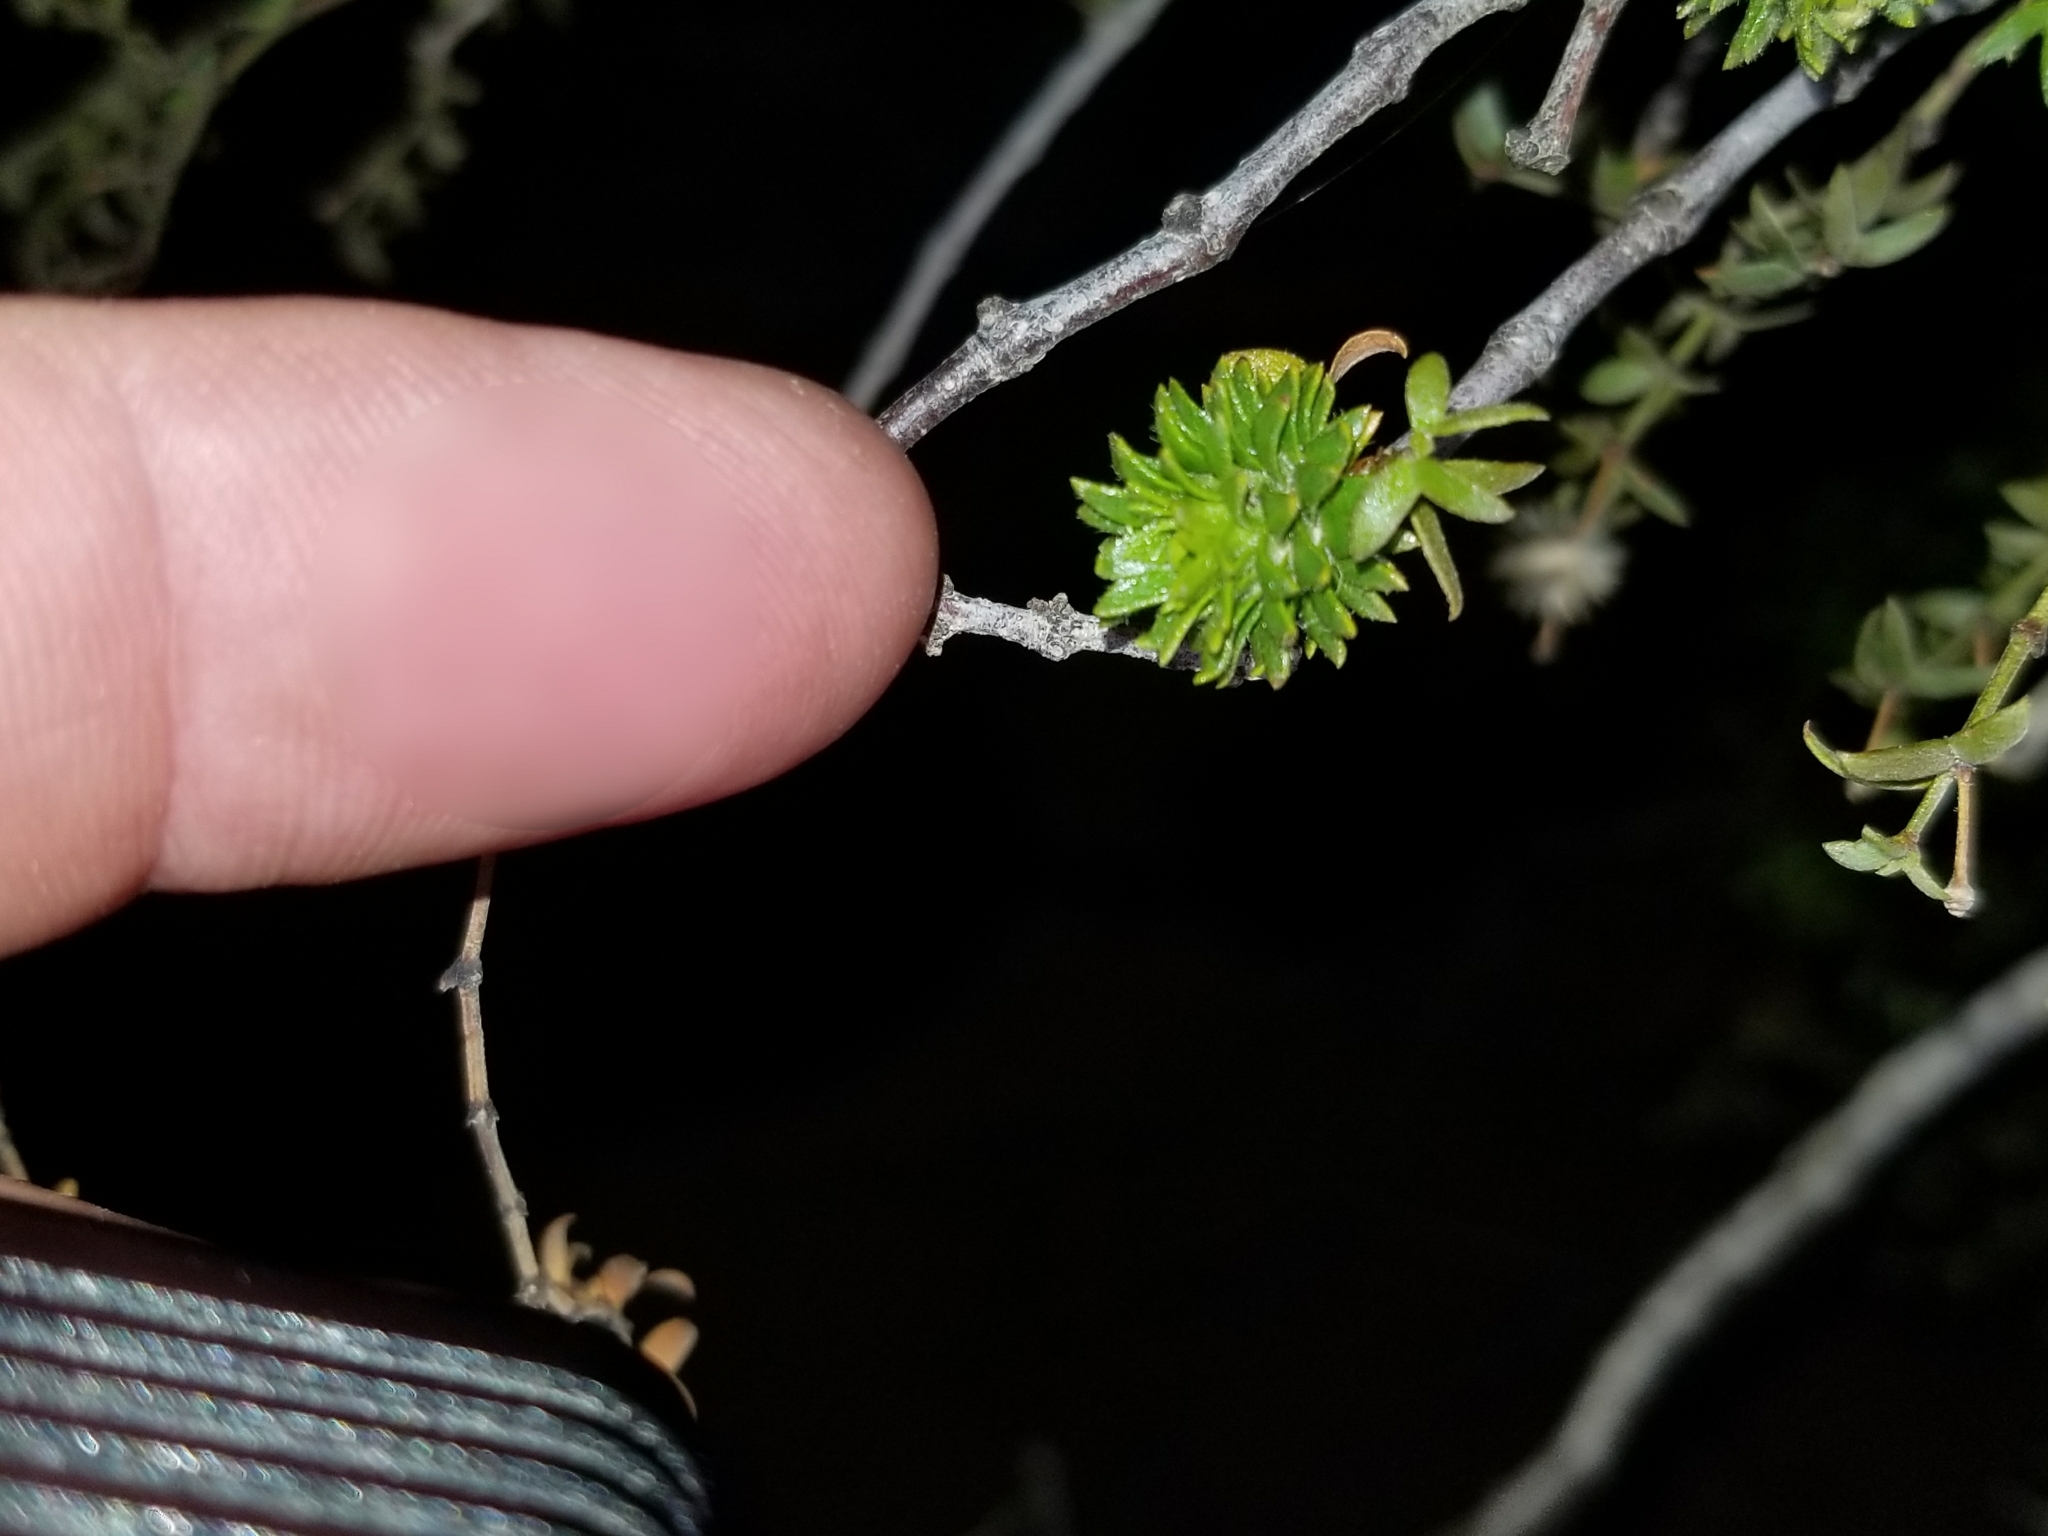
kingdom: Animalia
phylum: Arthropoda
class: Insecta
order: Diptera
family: Cecidomyiidae
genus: Asphondylia
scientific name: Asphondylia rosetta
